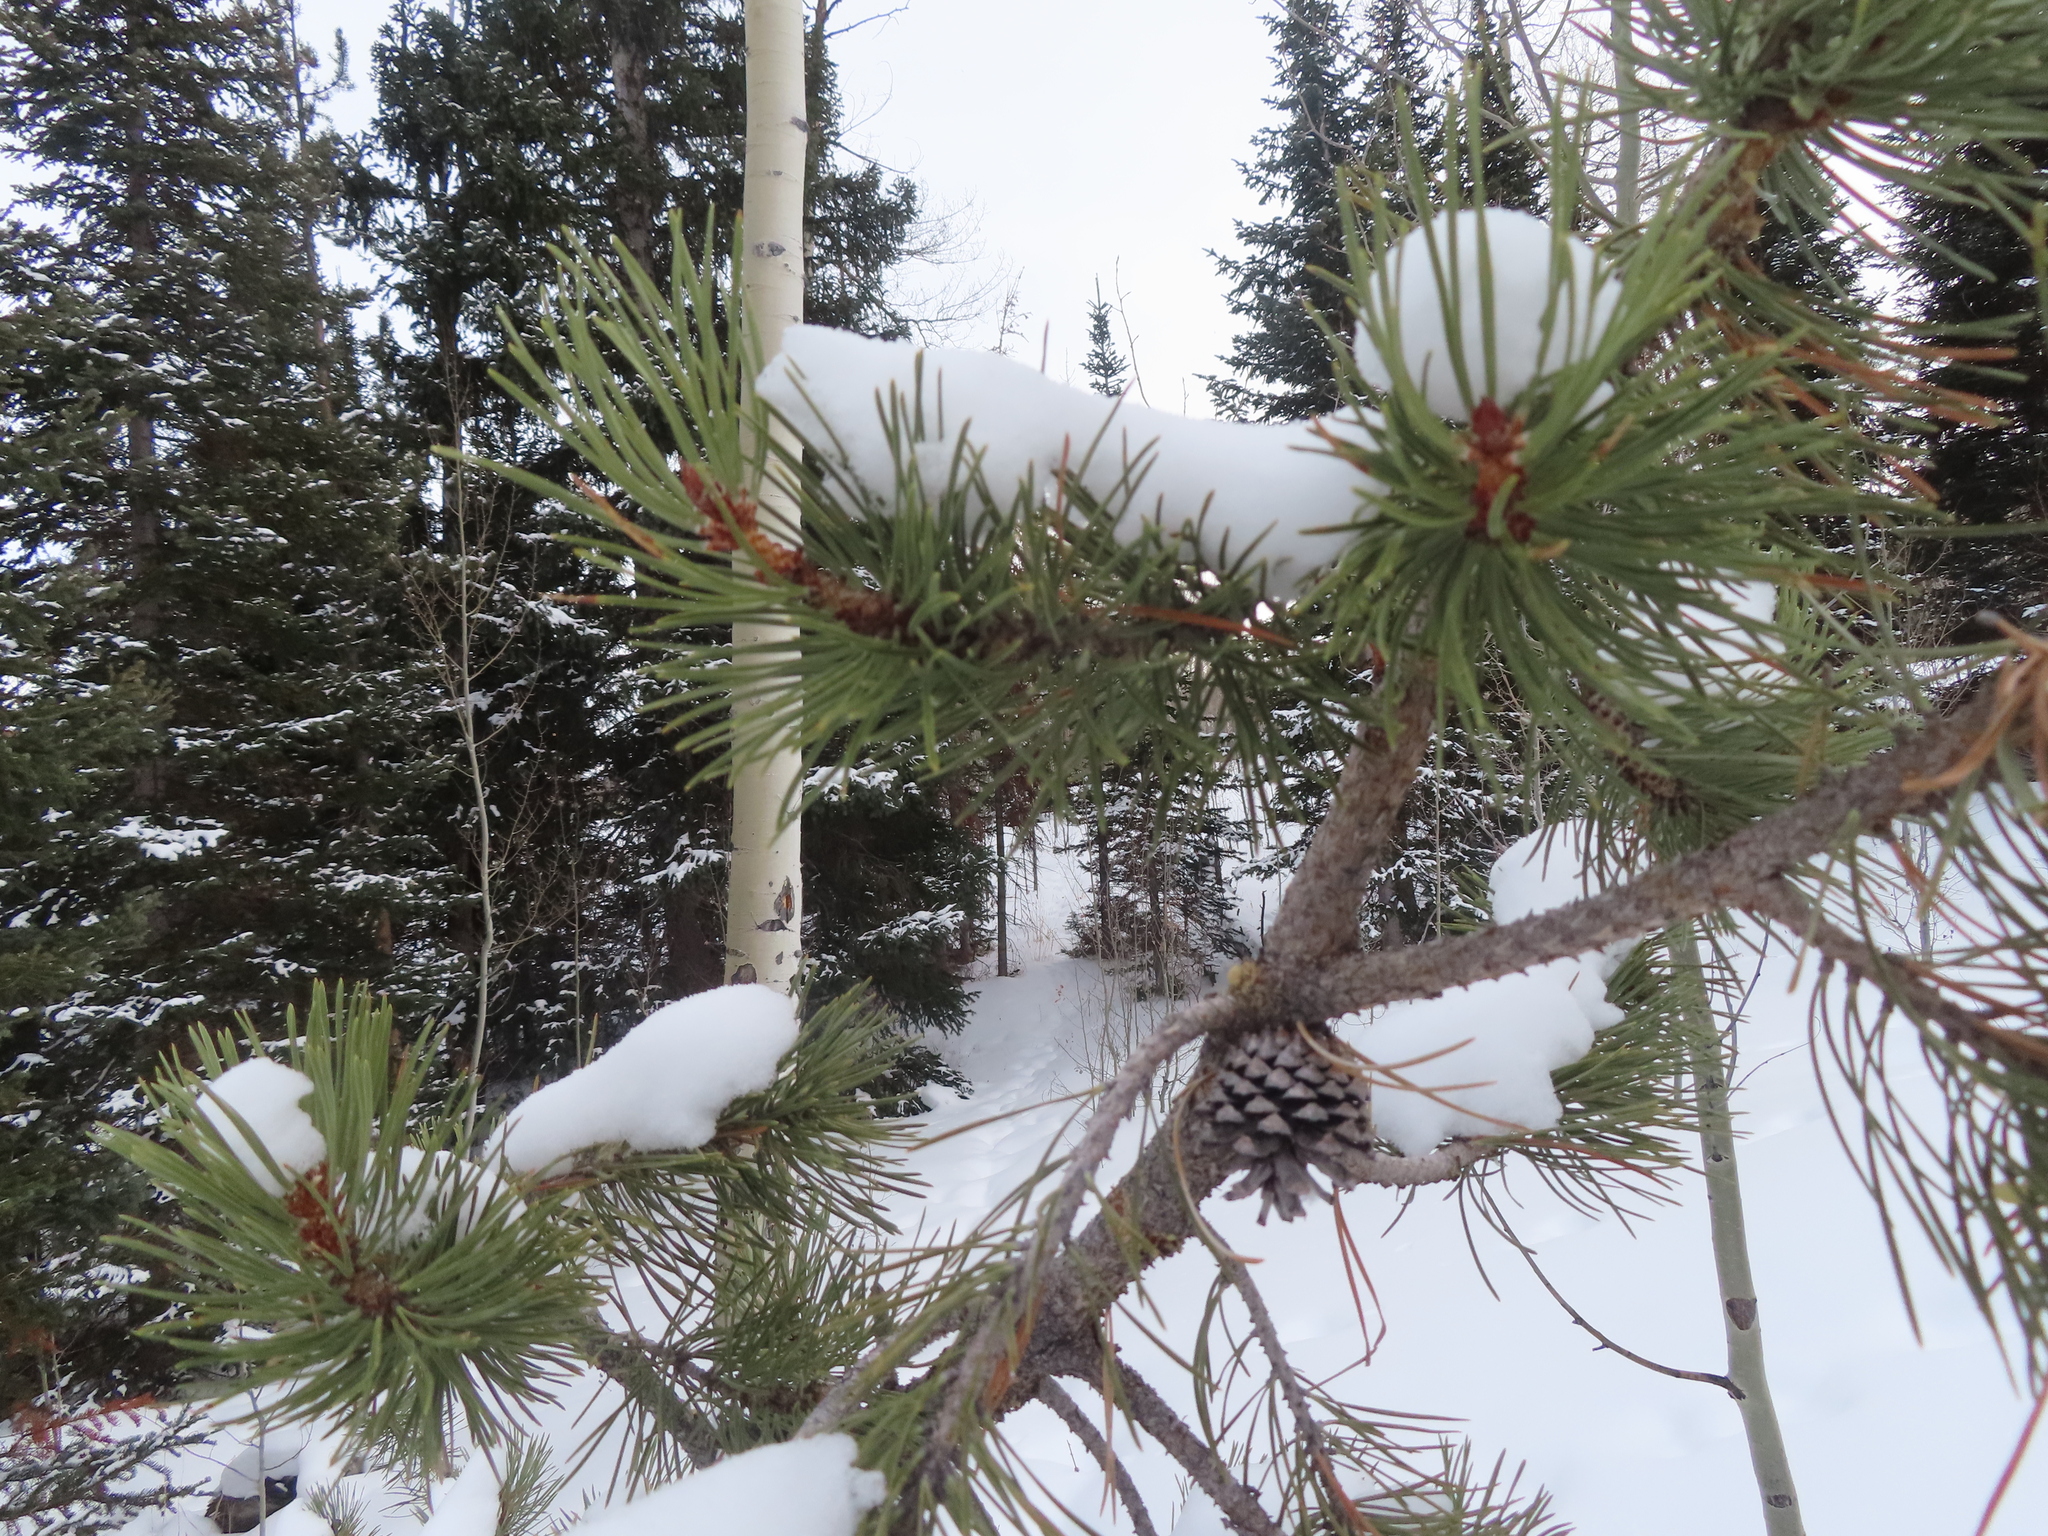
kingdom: Plantae
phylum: Tracheophyta
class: Pinopsida
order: Pinales
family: Pinaceae
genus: Pinus
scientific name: Pinus contorta
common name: Lodgepole pine
